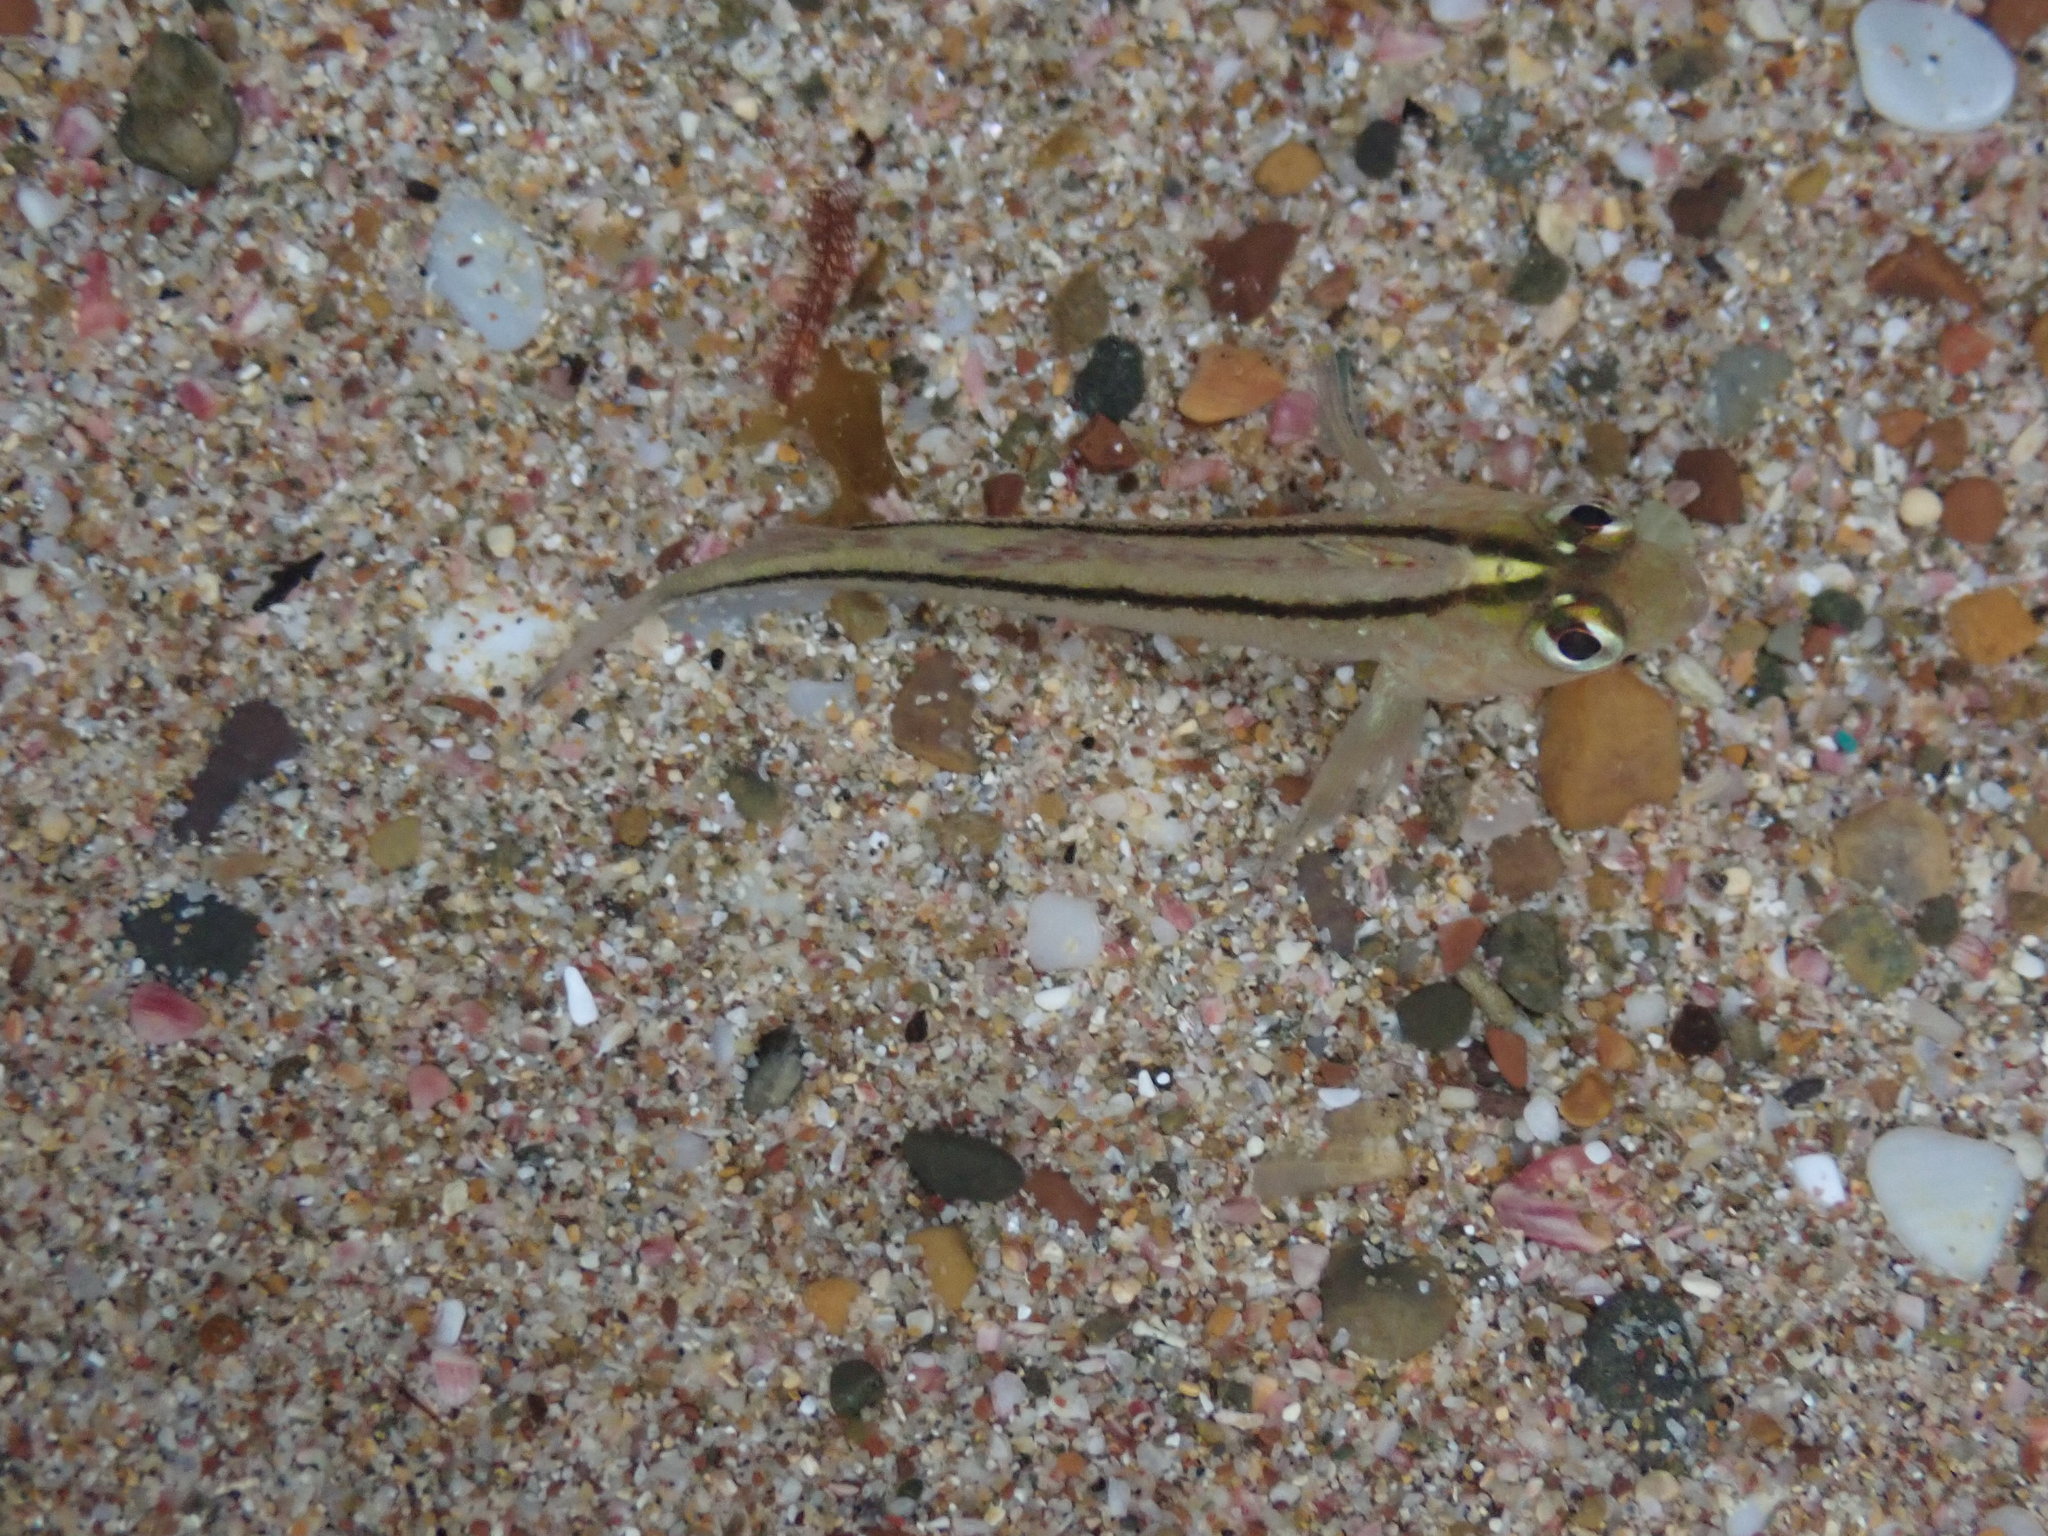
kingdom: Animalia
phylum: Chordata
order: Perciformes
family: Tripterygiidae
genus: Forsterygion
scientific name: Forsterygion lapillum
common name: Common triplefin
